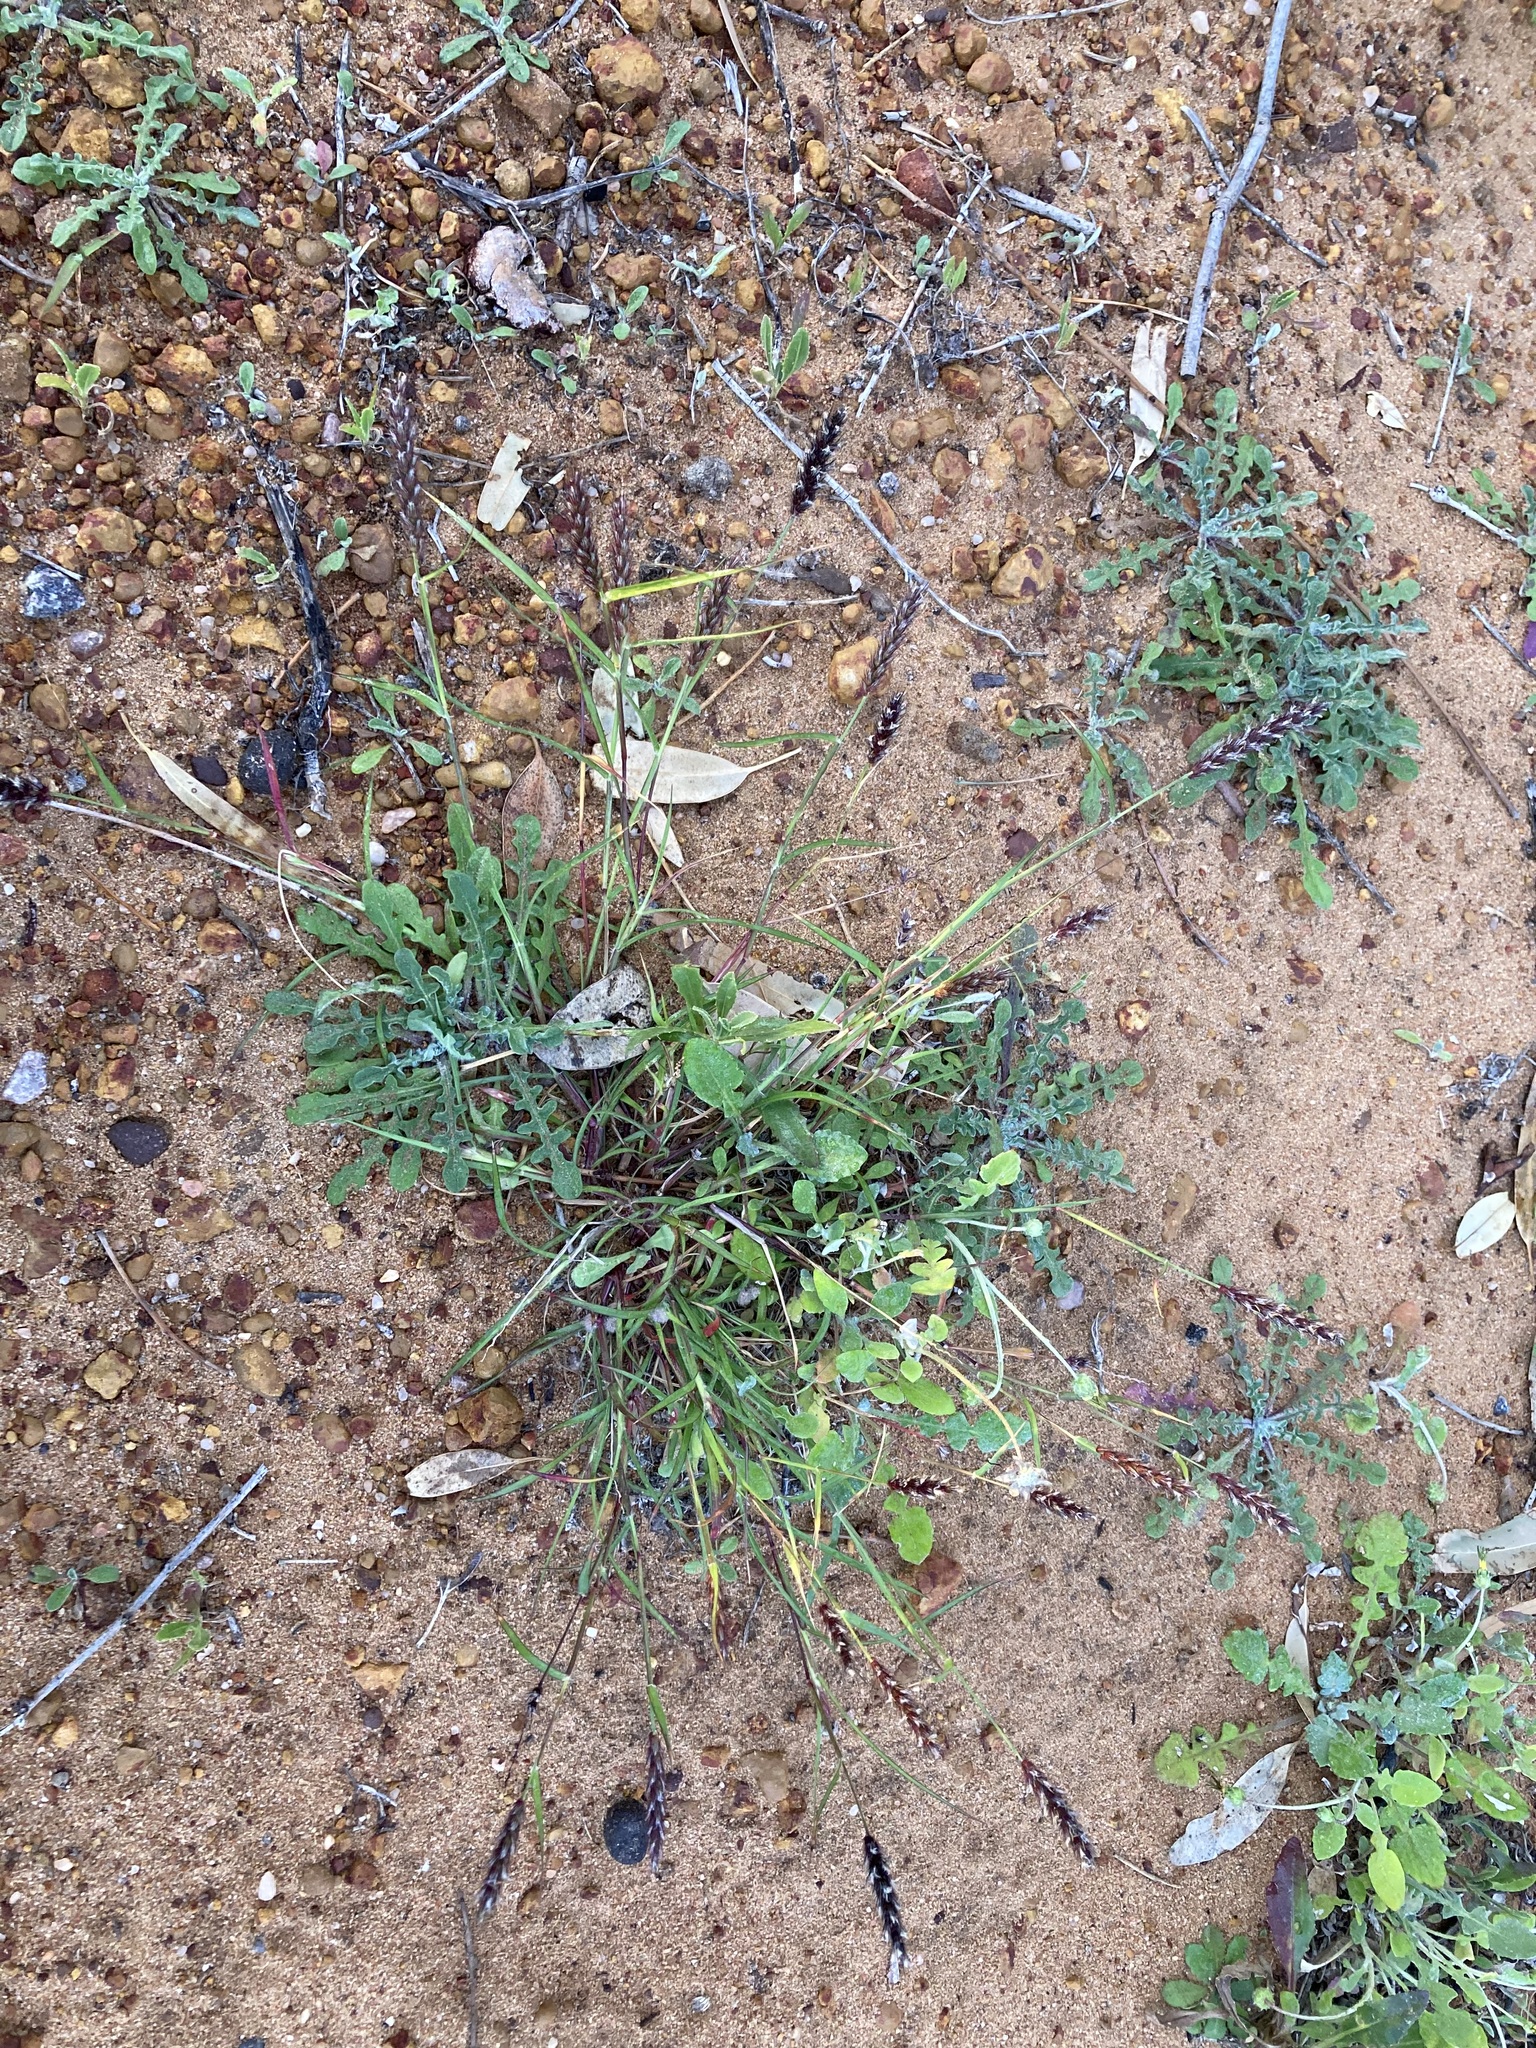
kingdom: Plantae
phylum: Tracheophyta
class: Liliopsida
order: Poales
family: Poaceae
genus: Cenchrus
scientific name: Cenchrus ciliaris
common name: Buffelgrass
